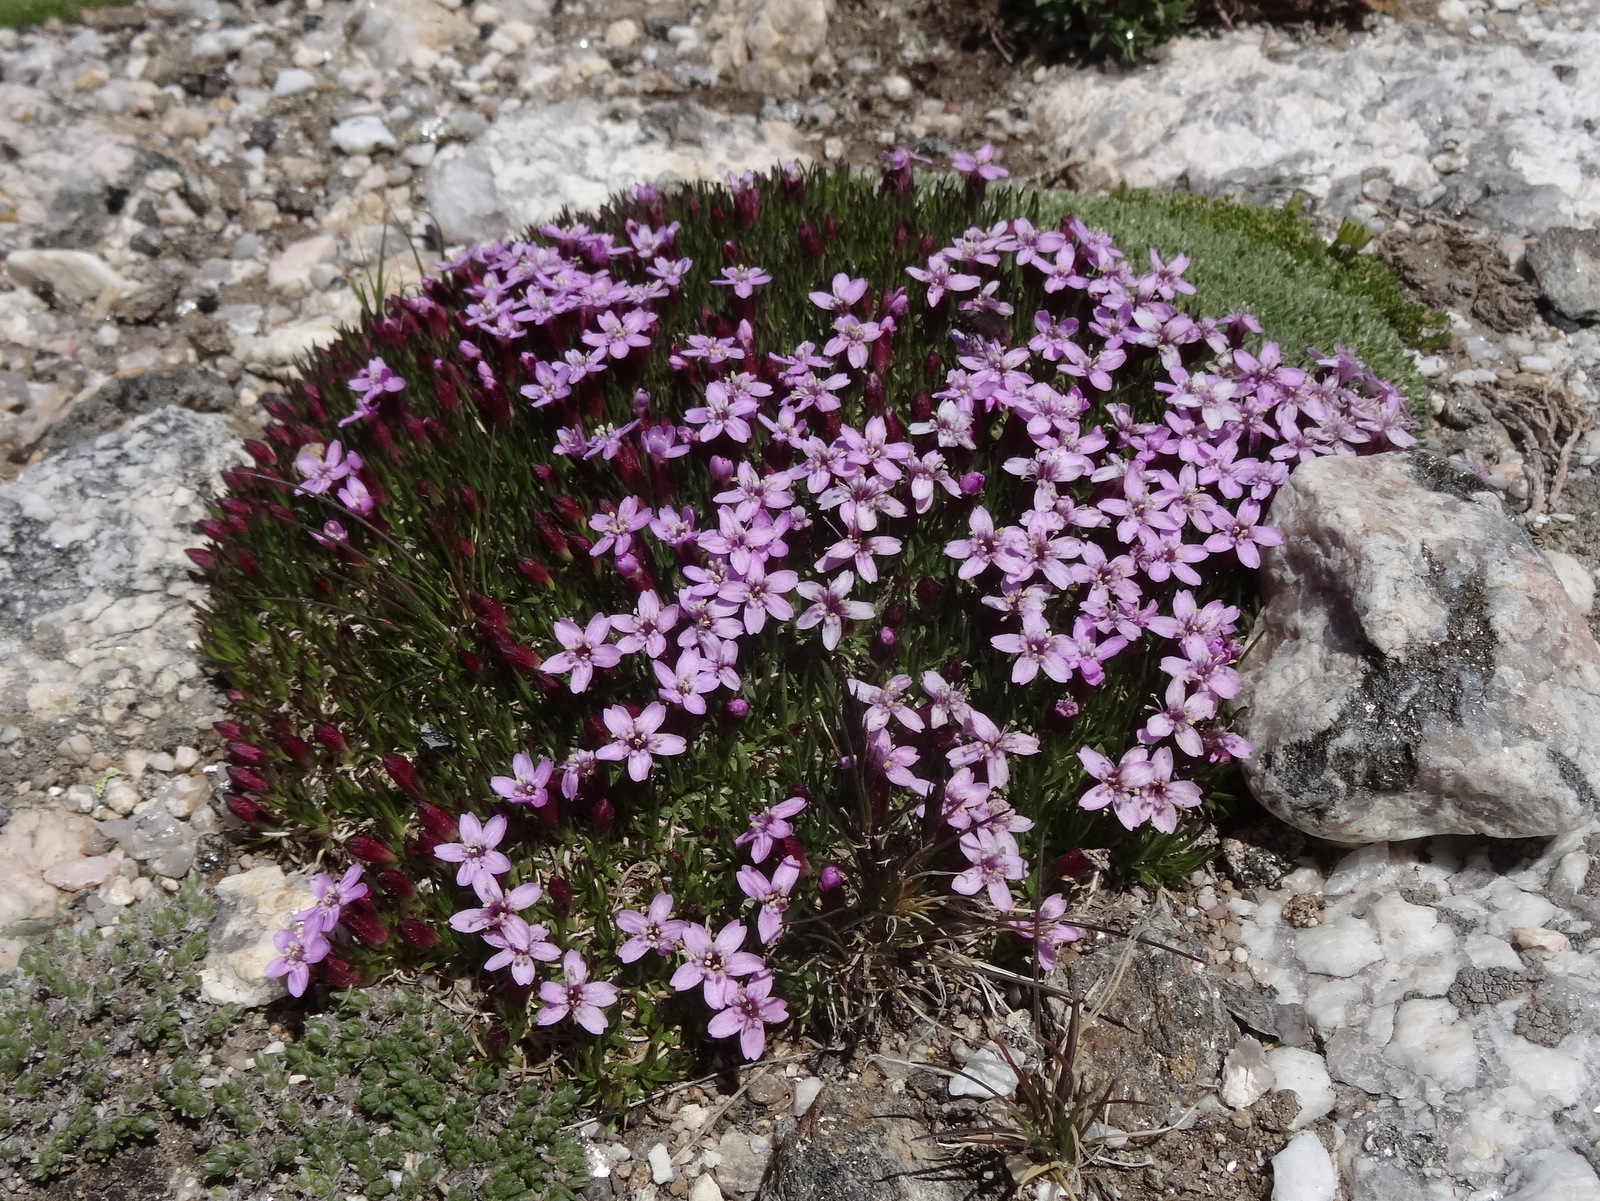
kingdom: Plantae
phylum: Tracheophyta
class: Magnoliopsida
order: Caryophyllales
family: Caryophyllaceae
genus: Silene
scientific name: Silene acaulis
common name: Moss campion
